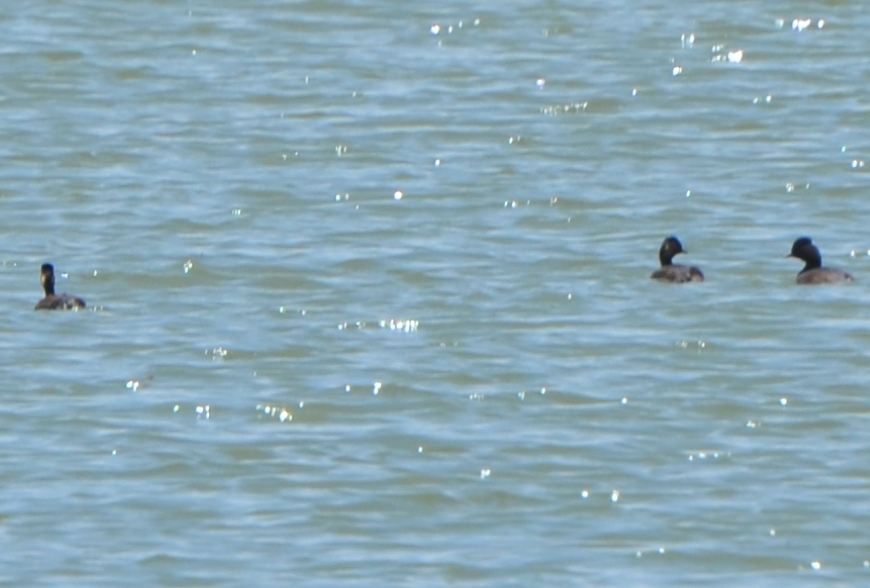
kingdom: Animalia
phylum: Chordata
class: Aves
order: Podicipediformes
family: Podicipedidae
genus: Podiceps
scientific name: Podiceps nigricollis
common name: Black-necked grebe
